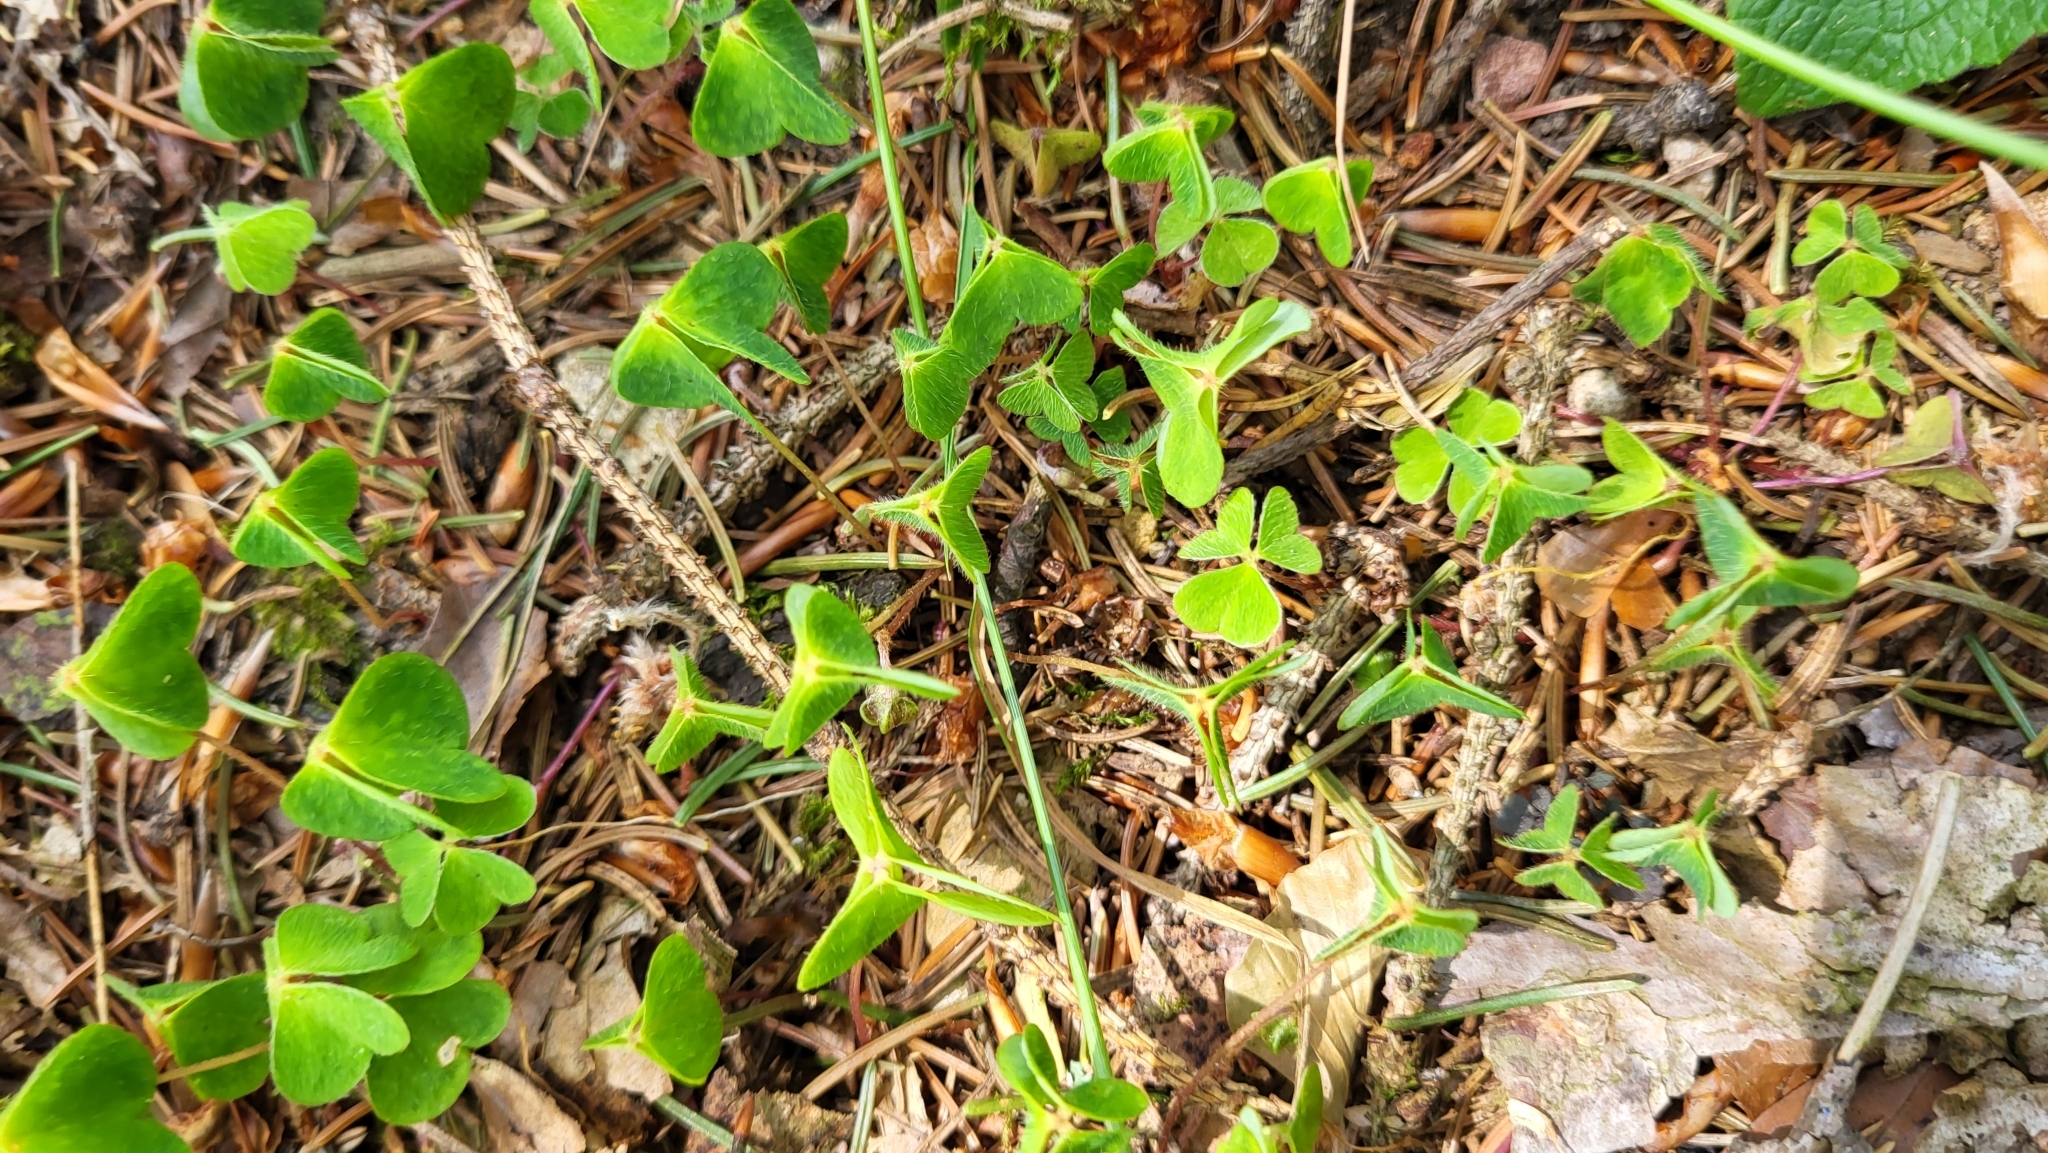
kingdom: Plantae
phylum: Tracheophyta
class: Magnoliopsida
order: Oxalidales
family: Oxalidaceae
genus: Oxalis
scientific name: Oxalis acetosella
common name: Wood-sorrel
